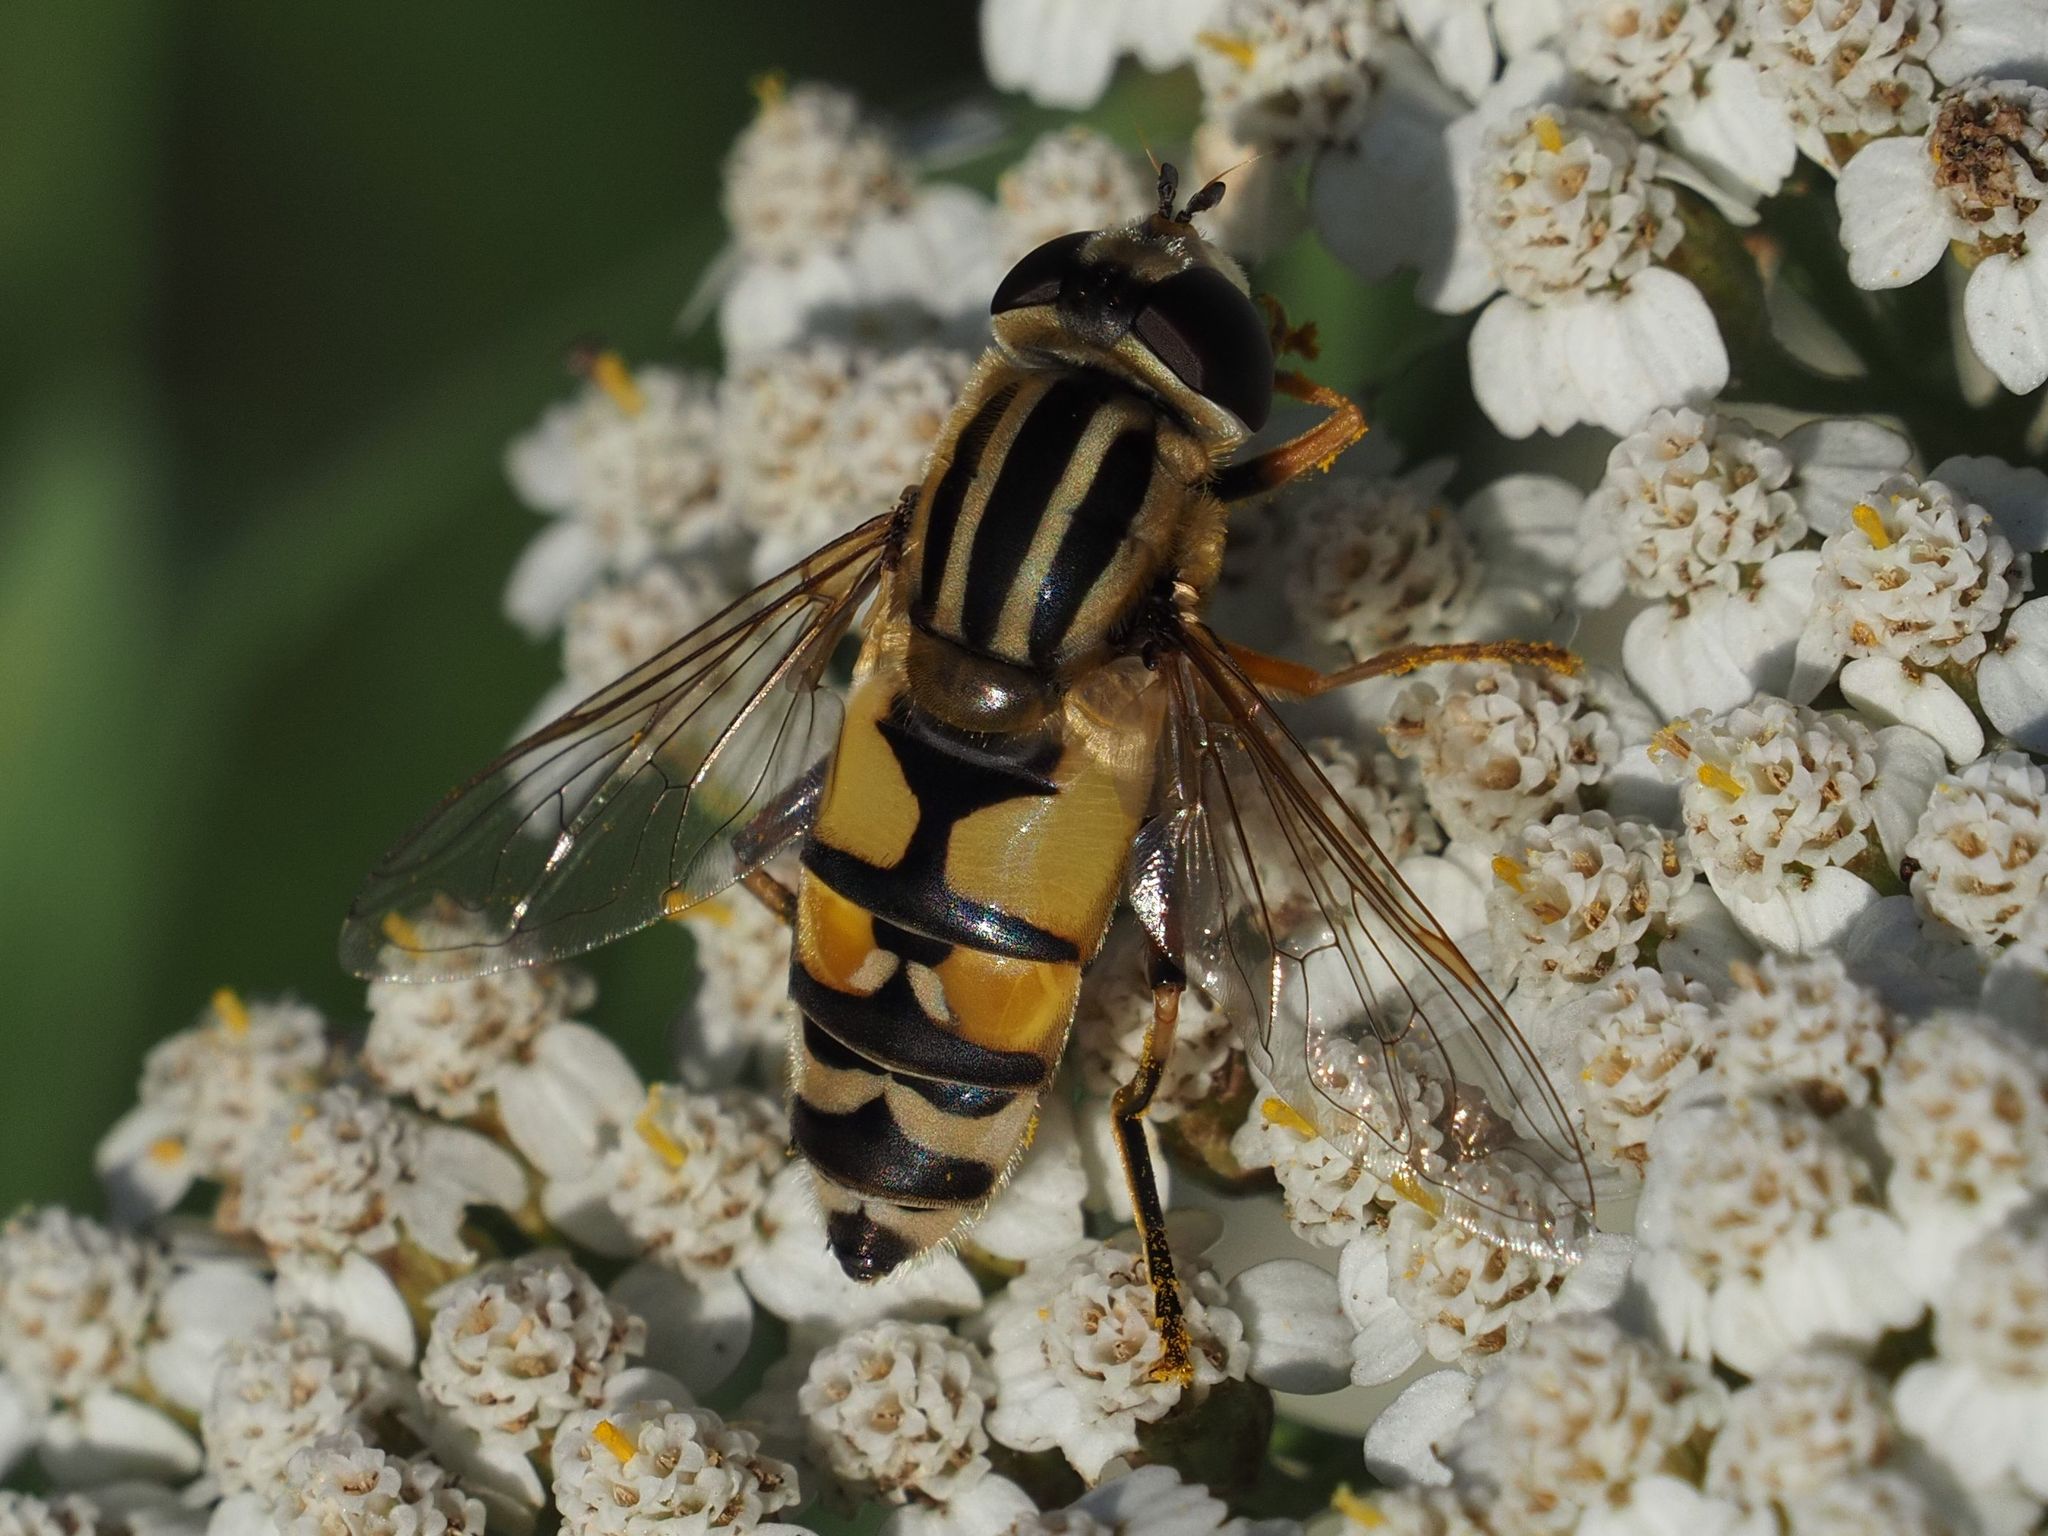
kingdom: Animalia
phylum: Arthropoda
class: Insecta
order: Diptera
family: Syrphidae
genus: Helophilus
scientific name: Helophilus trivittatus
